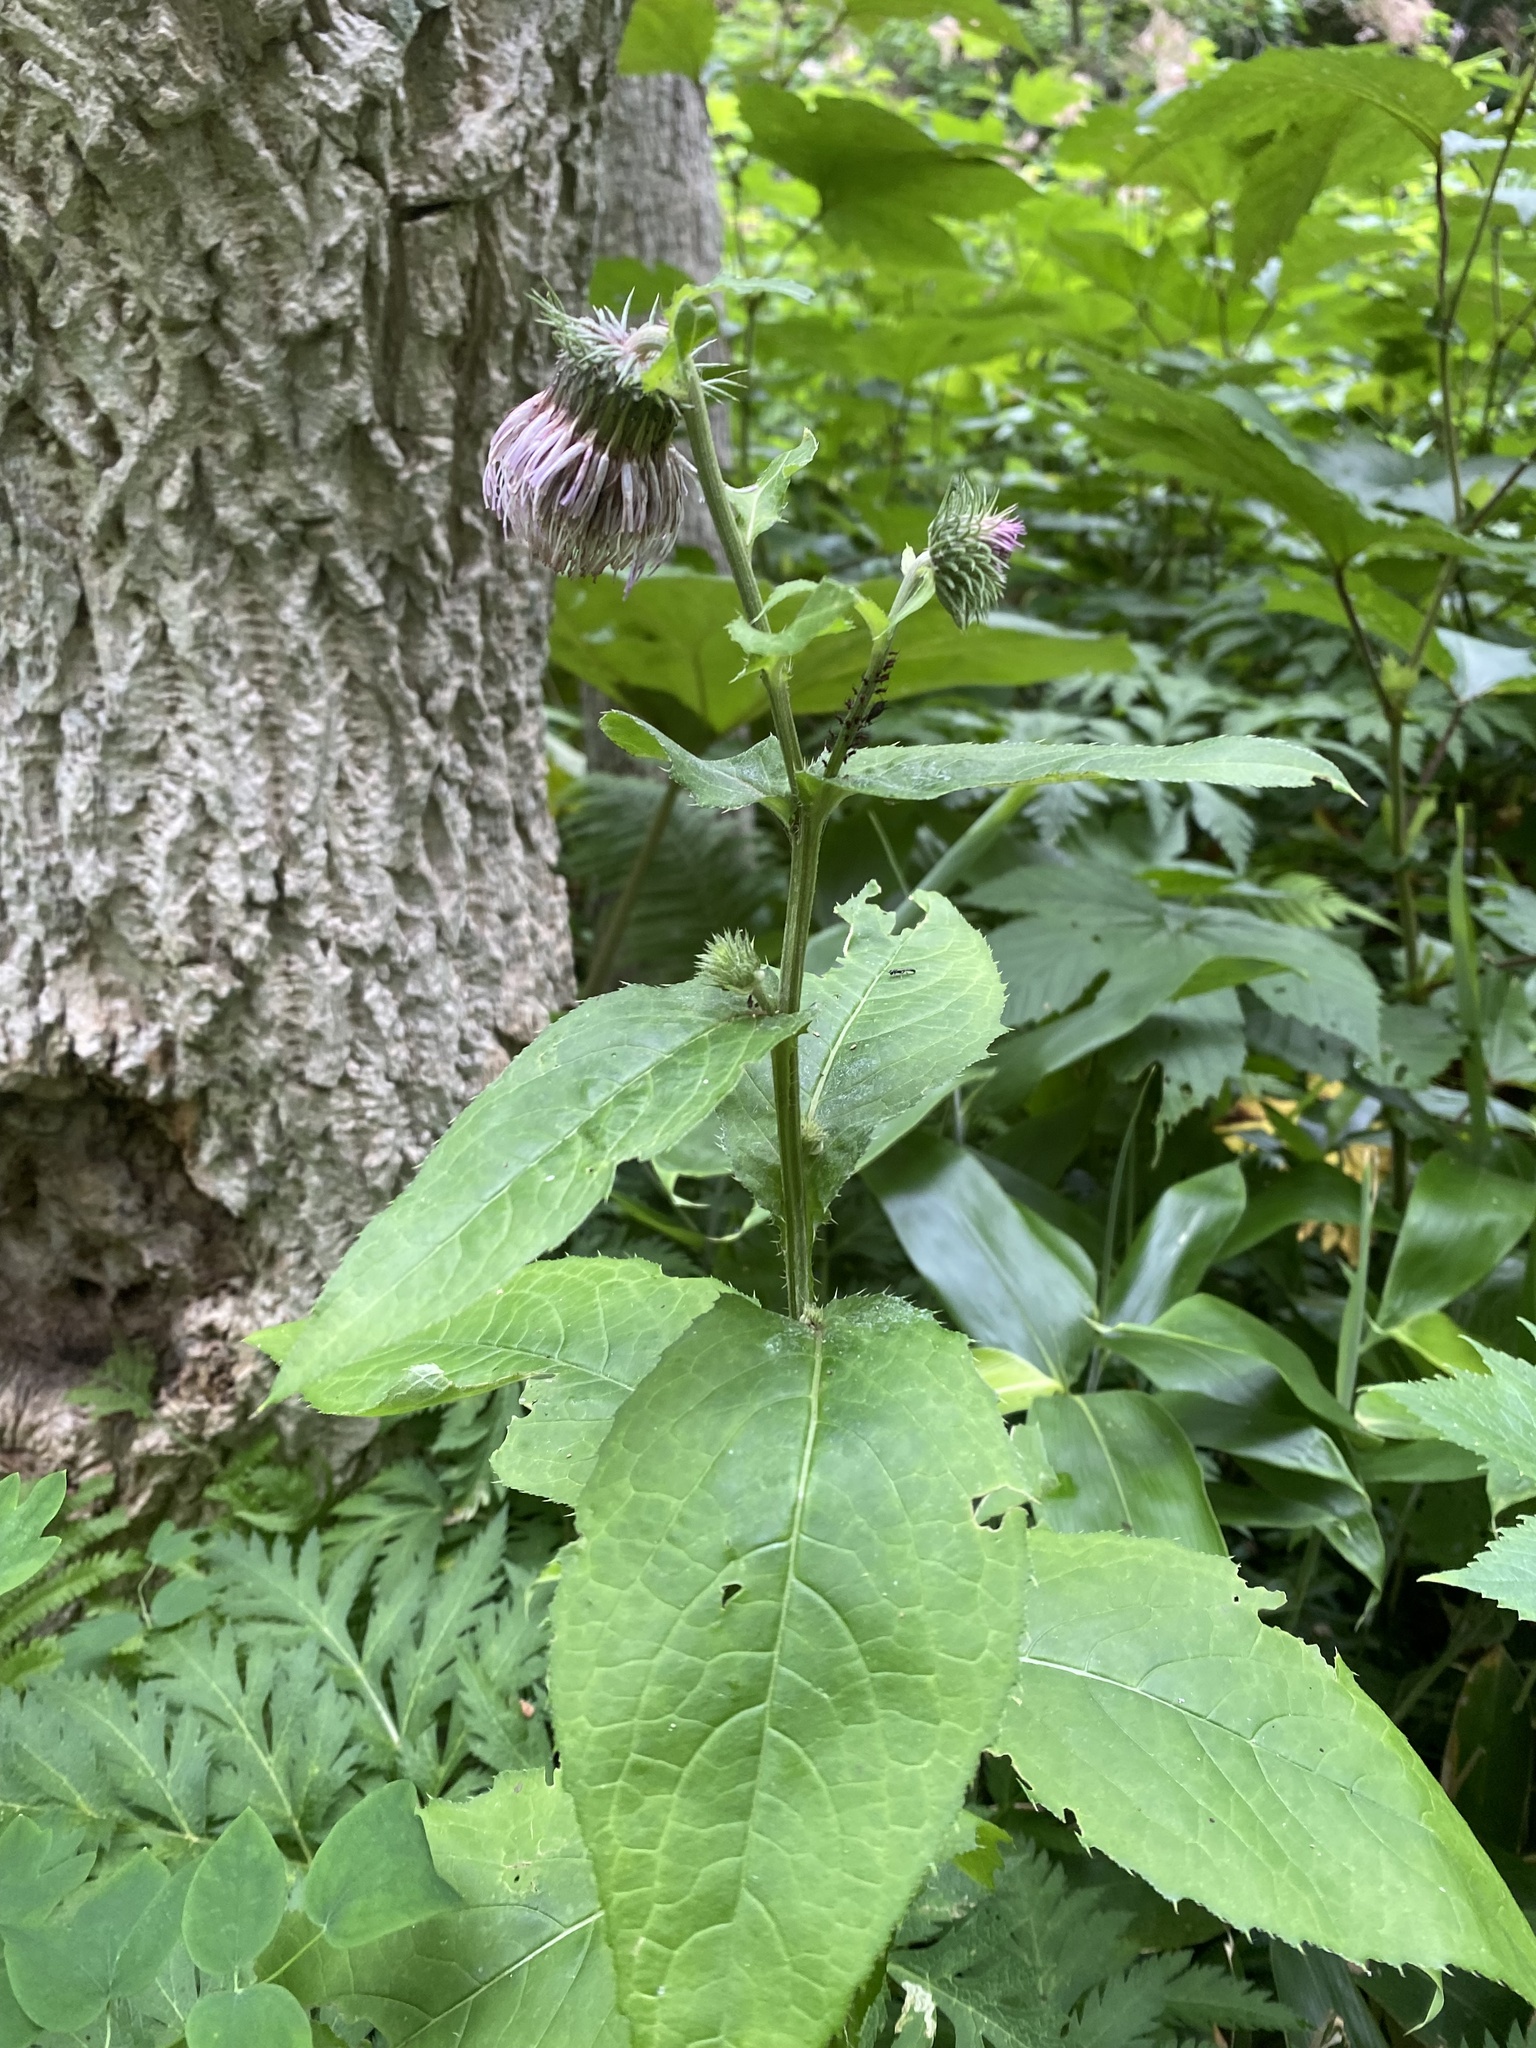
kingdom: Plantae
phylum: Tracheophyta
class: Magnoliopsida
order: Asterales
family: Asteraceae
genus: Cirsium
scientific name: Cirsium kamtschaticum
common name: Kamchatka thistle
